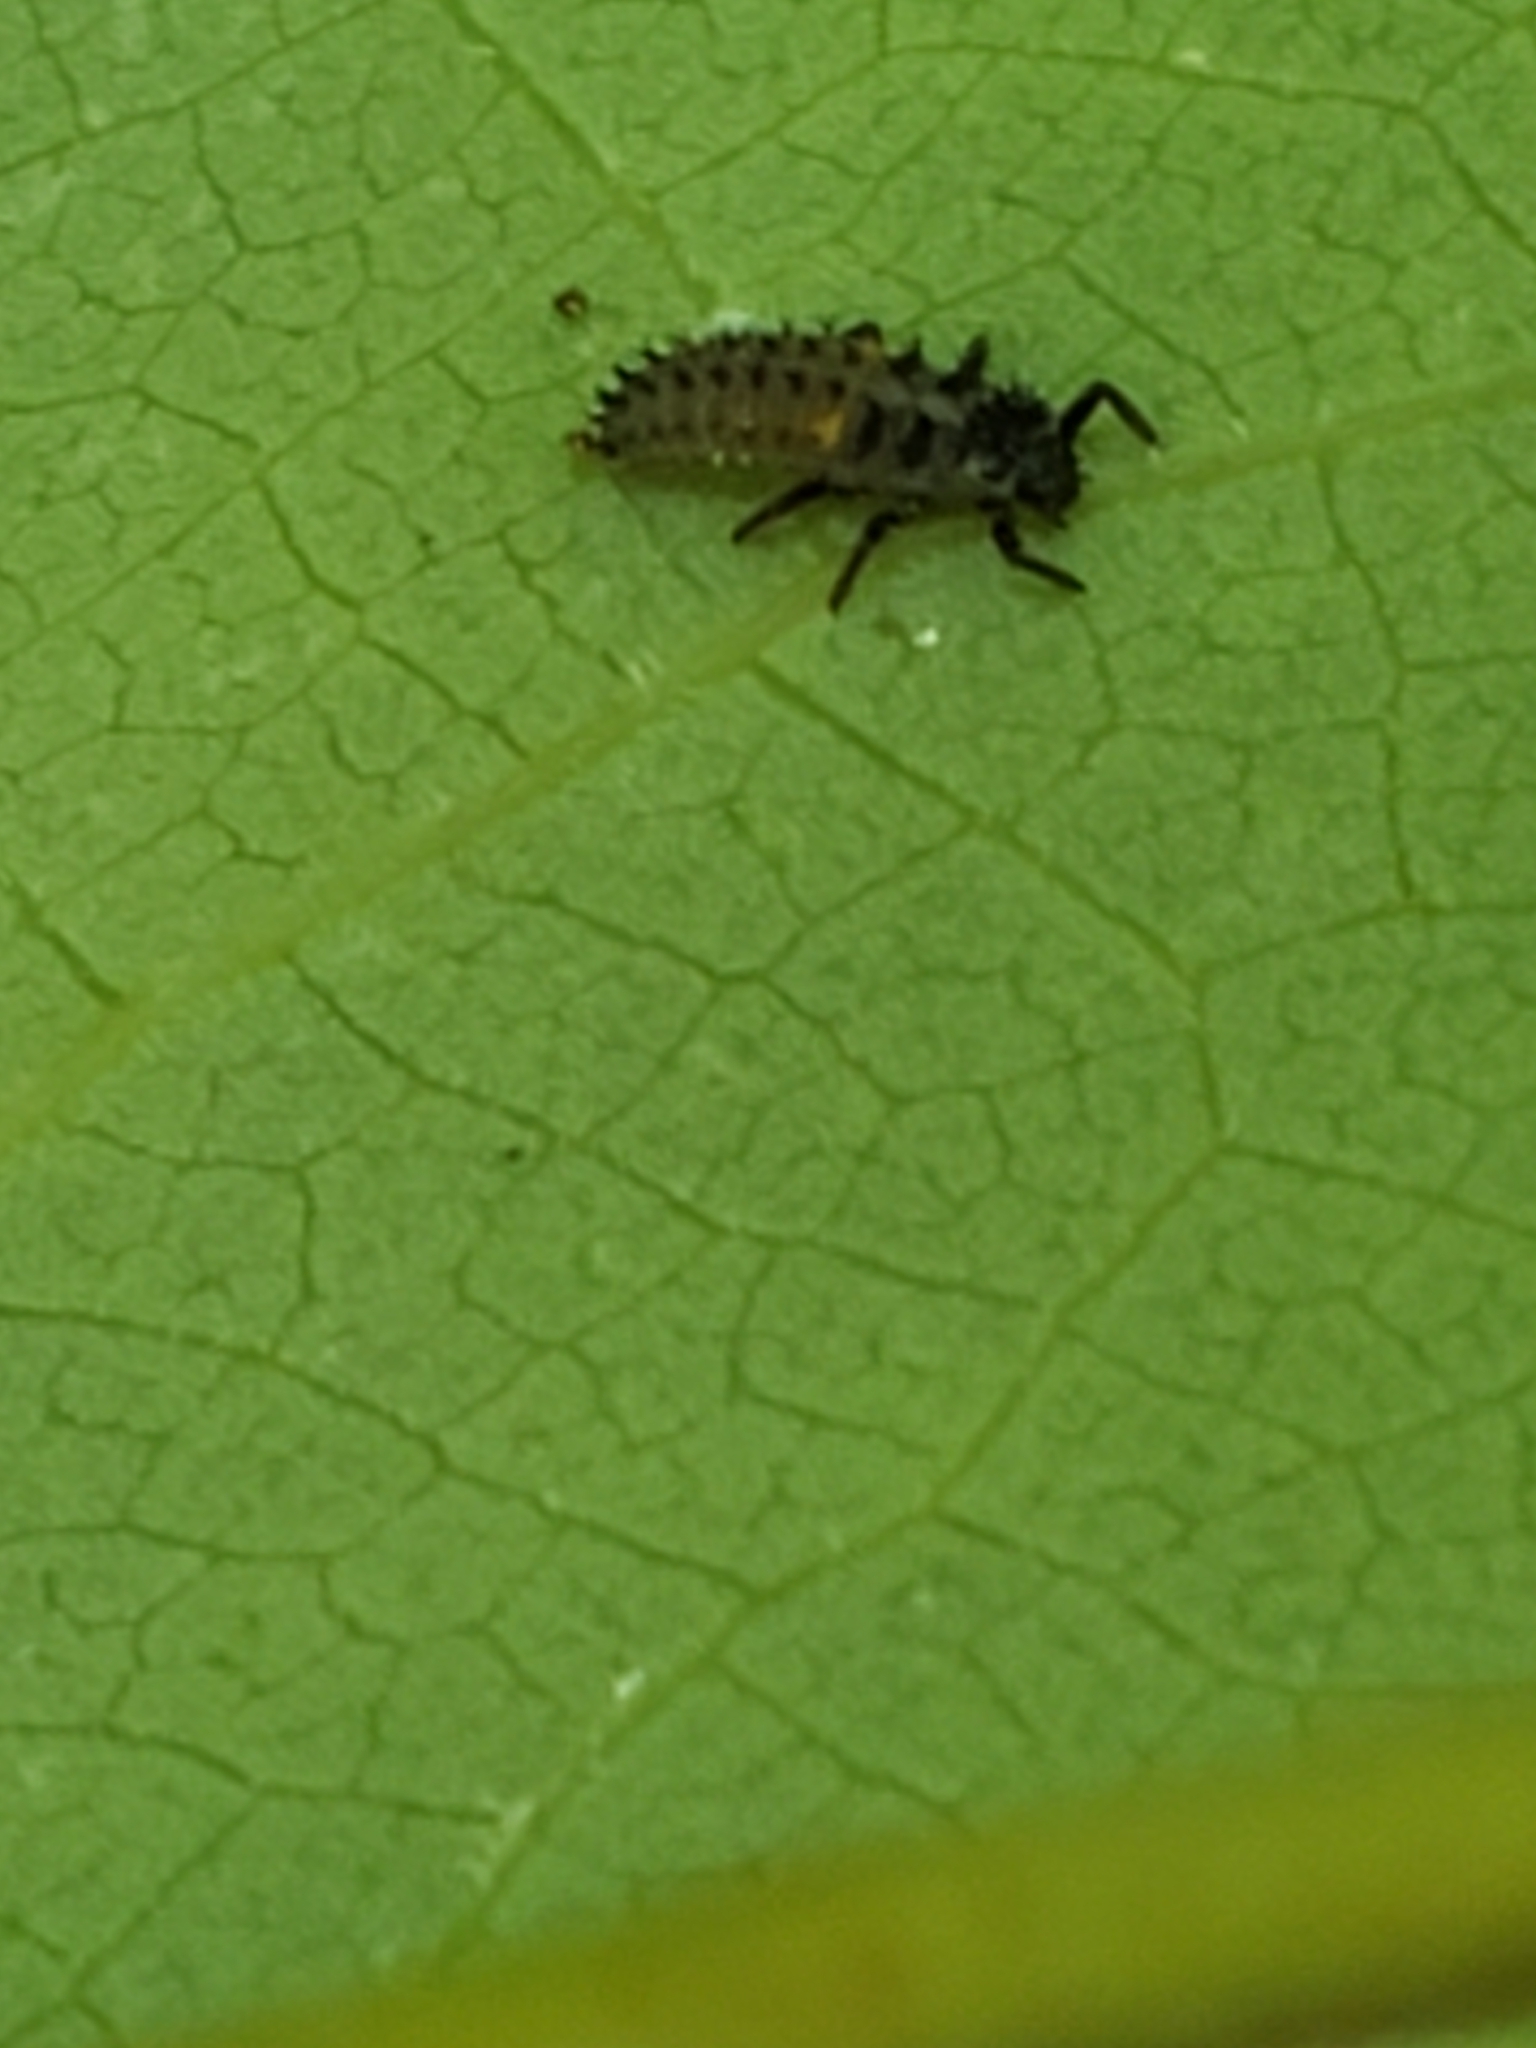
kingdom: Animalia
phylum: Arthropoda
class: Insecta
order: Coleoptera
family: Coccinellidae
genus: Harmonia
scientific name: Harmonia axyridis
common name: Harlequin ladybird
